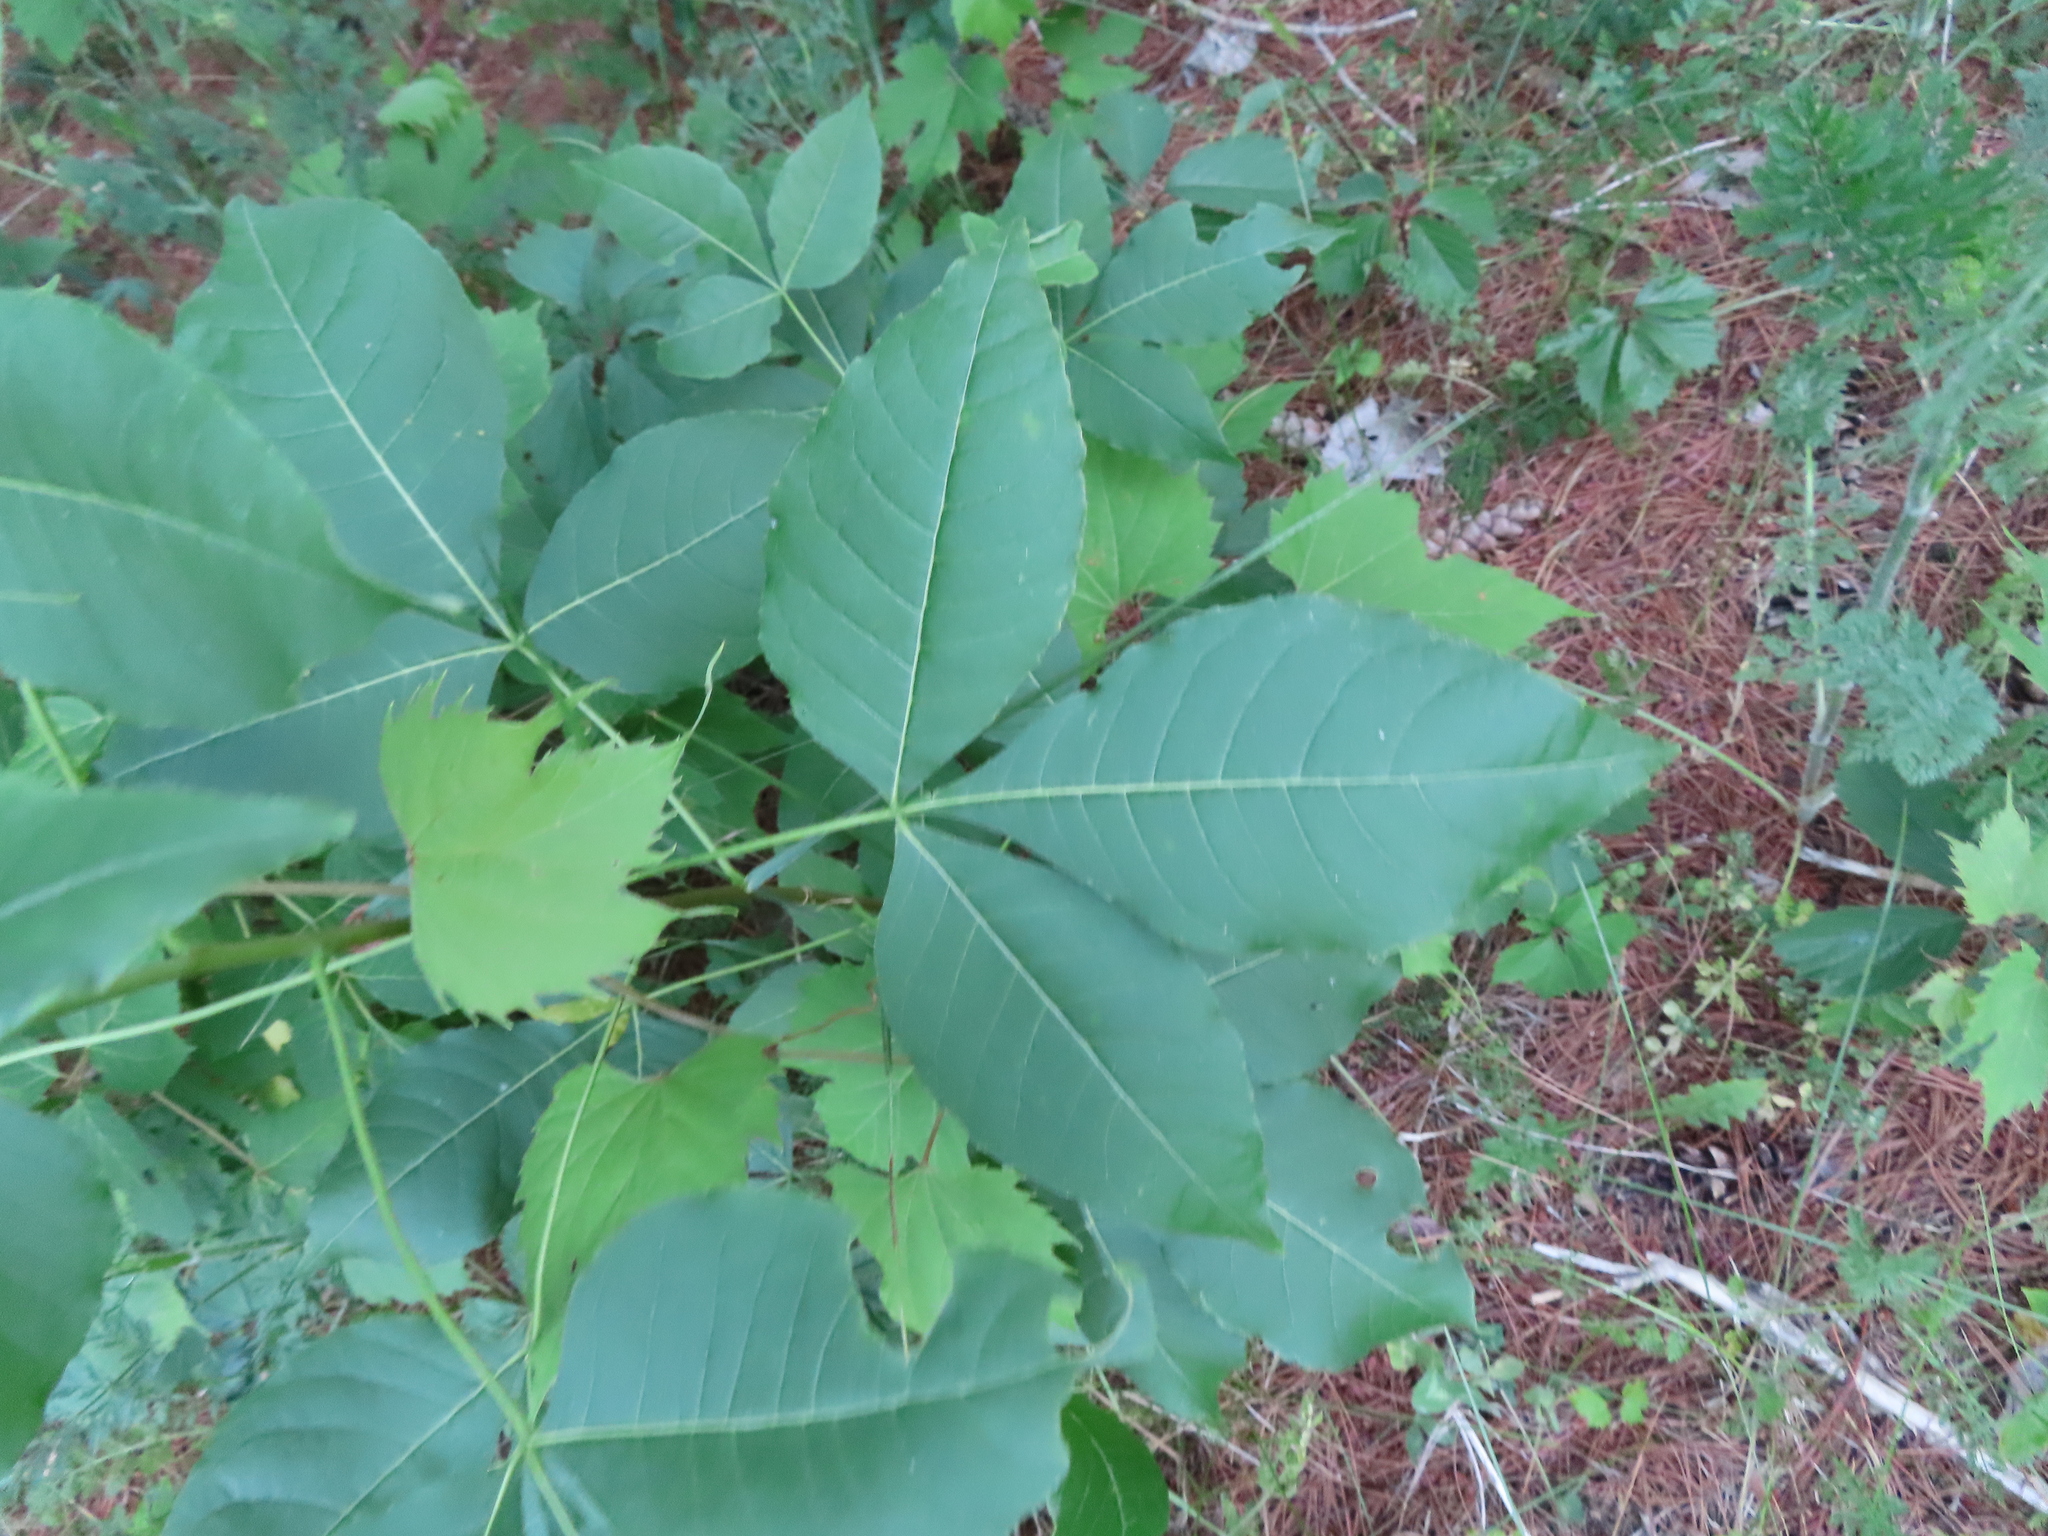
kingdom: Plantae
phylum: Tracheophyta
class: Magnoliopsida
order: Sapindales
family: Rutaceae
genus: Ptelea
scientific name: Ptelea trifoliata
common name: Common hop-tree
